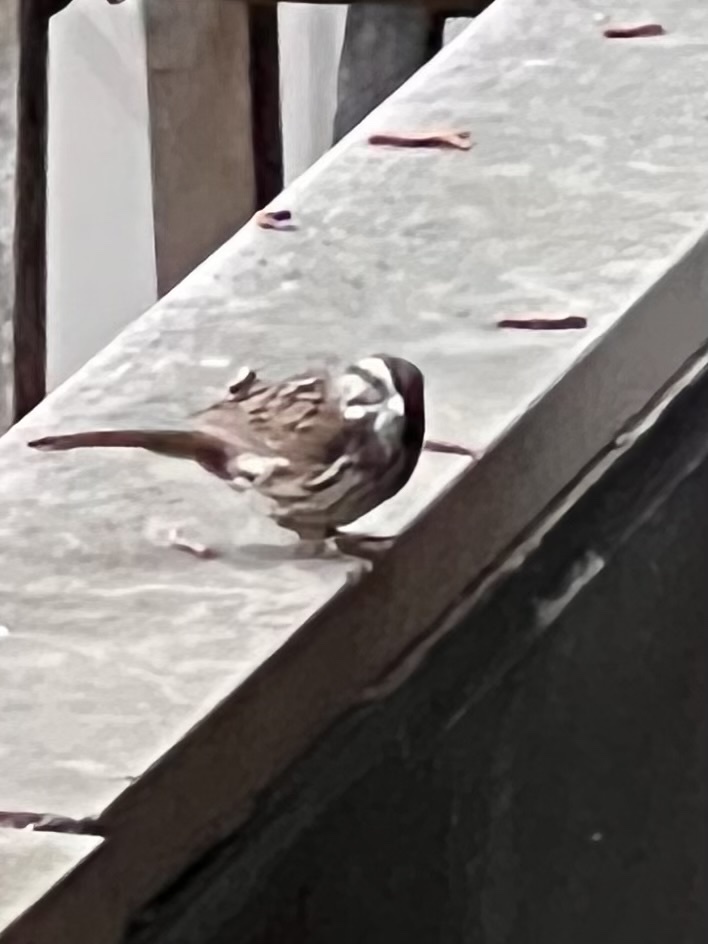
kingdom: Animalia
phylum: Chordata
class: Aves
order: Passeriformes
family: Passerellidae
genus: Melospiza
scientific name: Melospiza melodia
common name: Song sparrow
